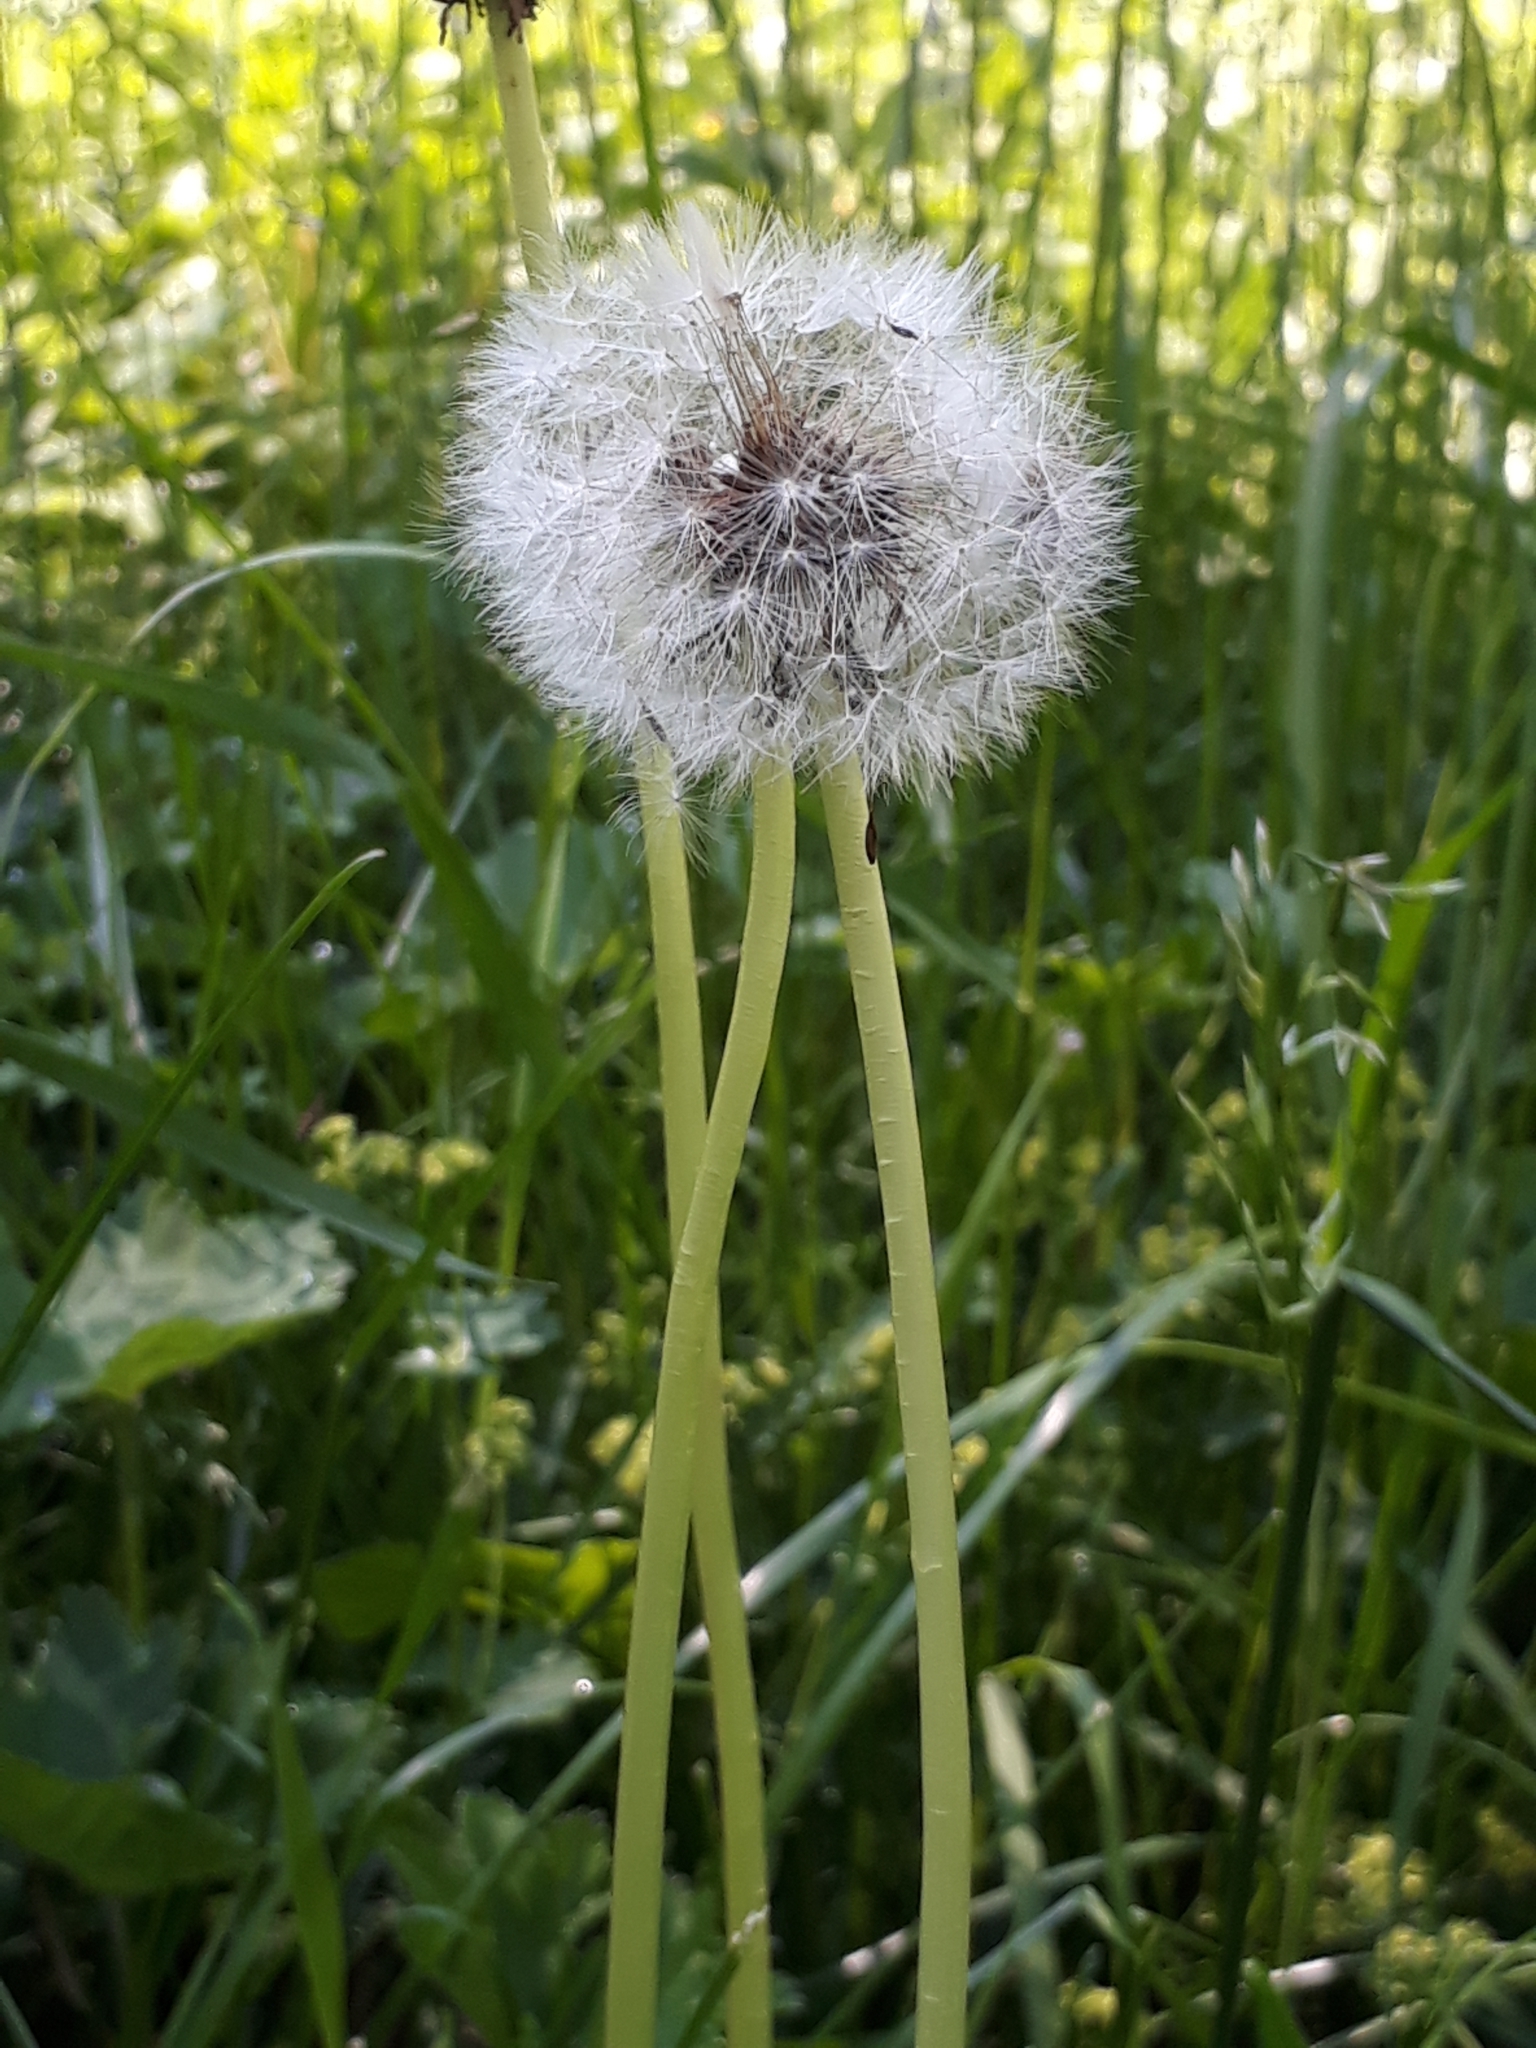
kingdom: Plantae
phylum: Tracheophyta
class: Magnoliopsida
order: Asterales
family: Asteraceae
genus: Taraxacum
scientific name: Taraxacum officinale
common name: Common dandelion
